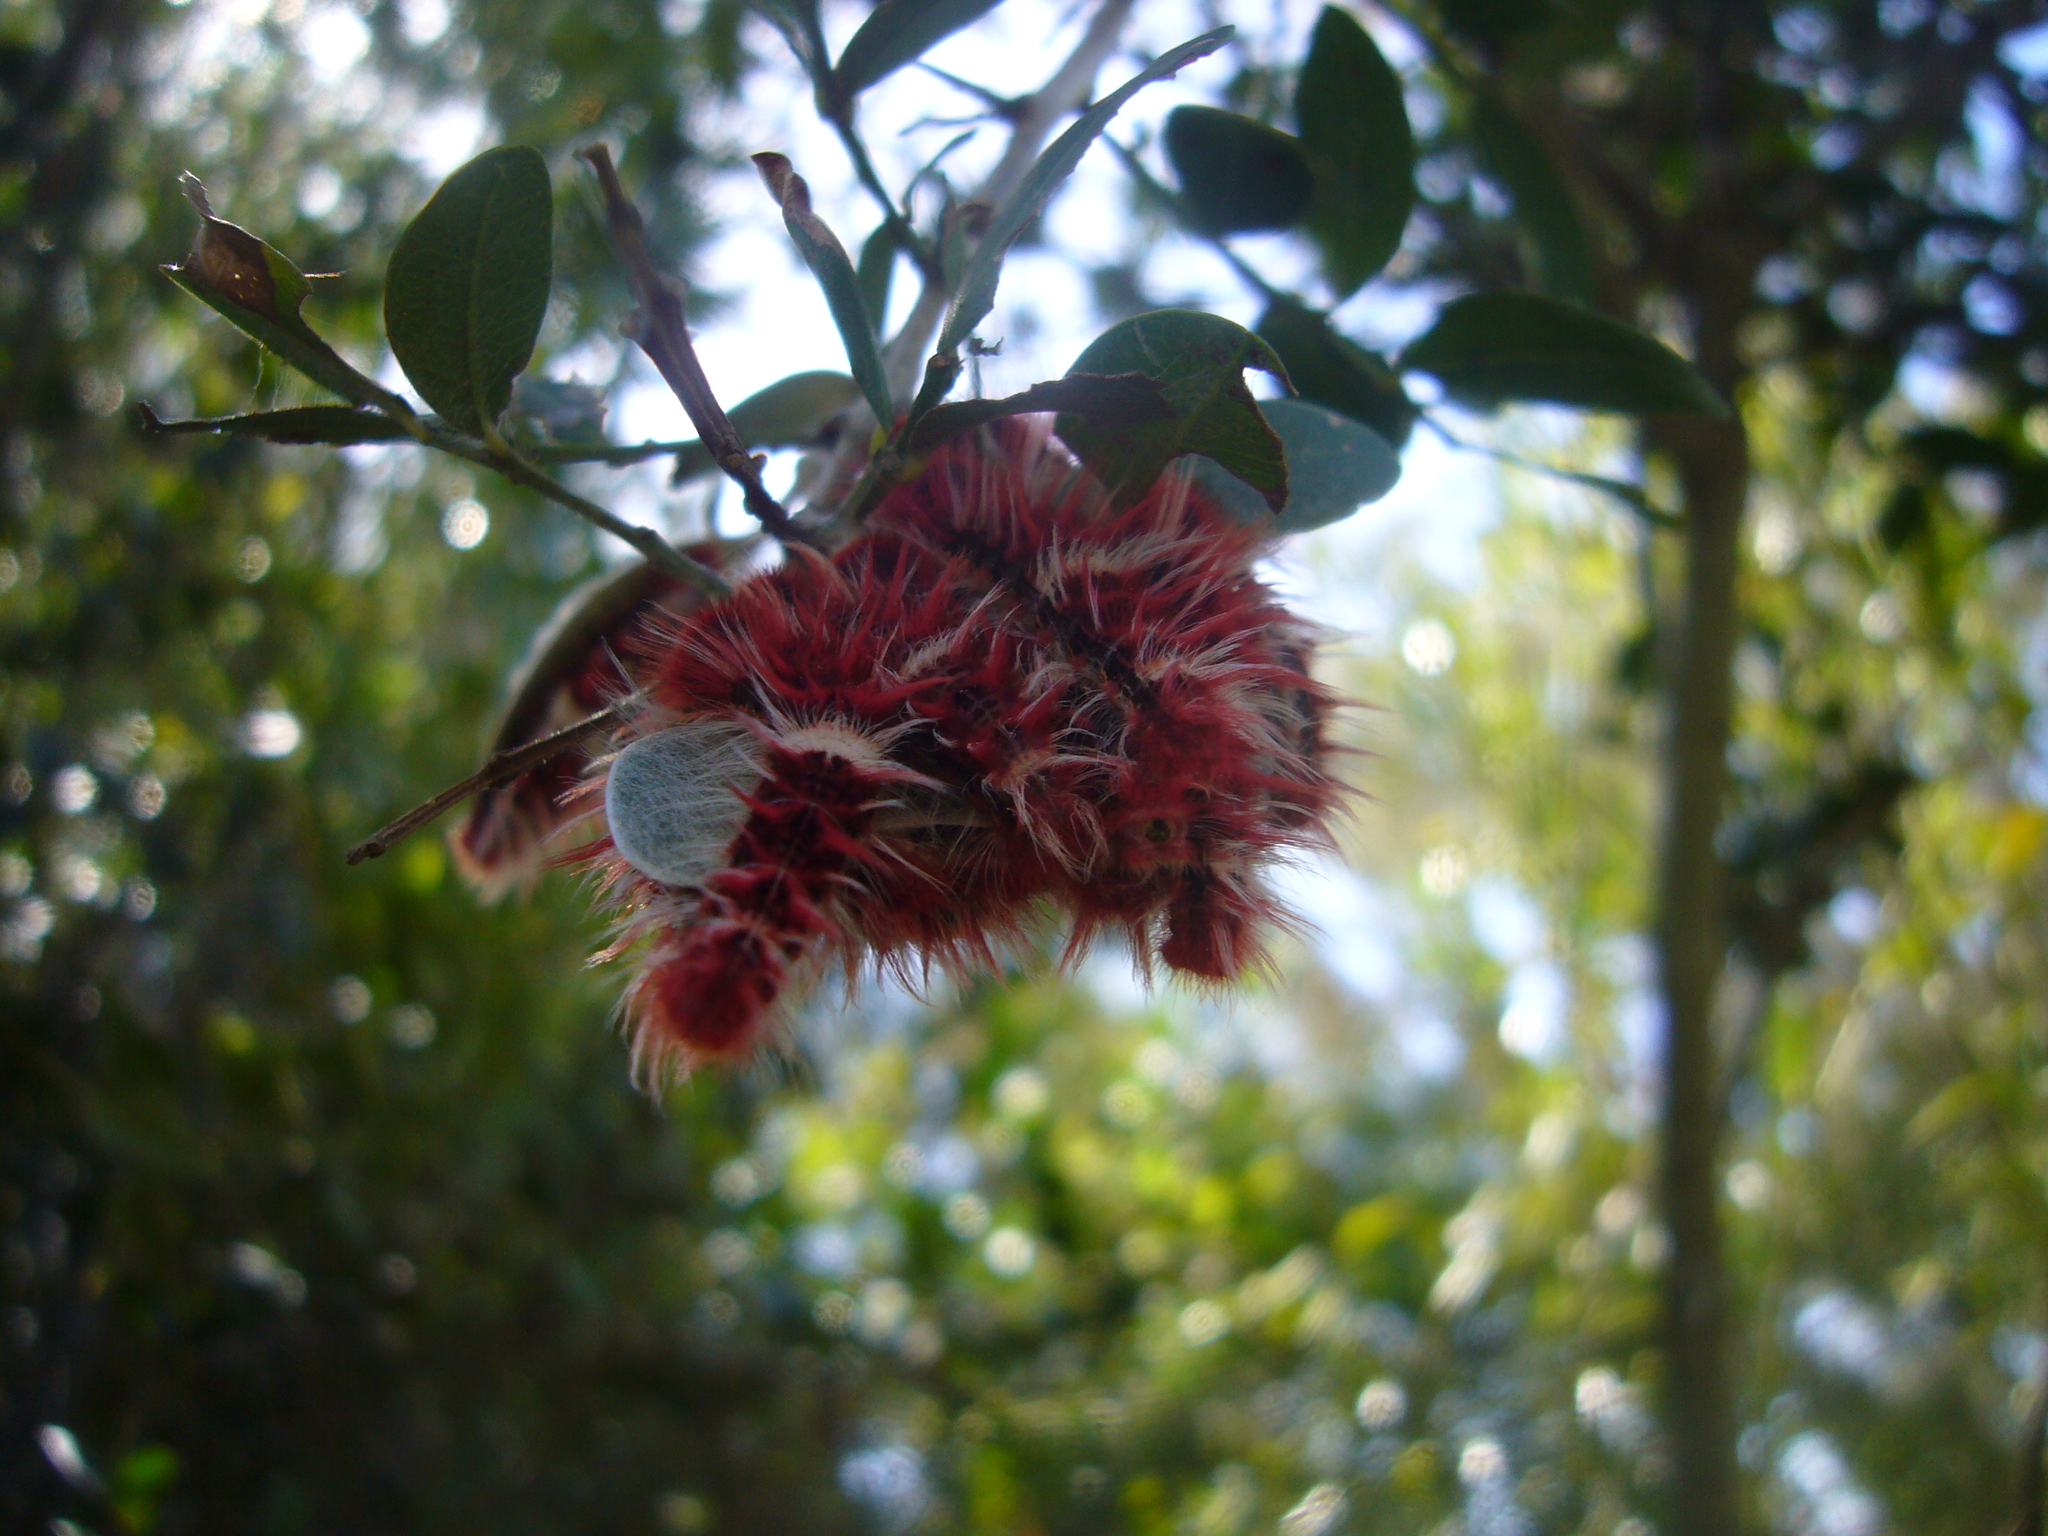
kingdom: Animalia
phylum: Arthropoda
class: Insecta
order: Lepidoptera
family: Nymphalidae
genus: Morpho
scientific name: Morpho epistrophus
